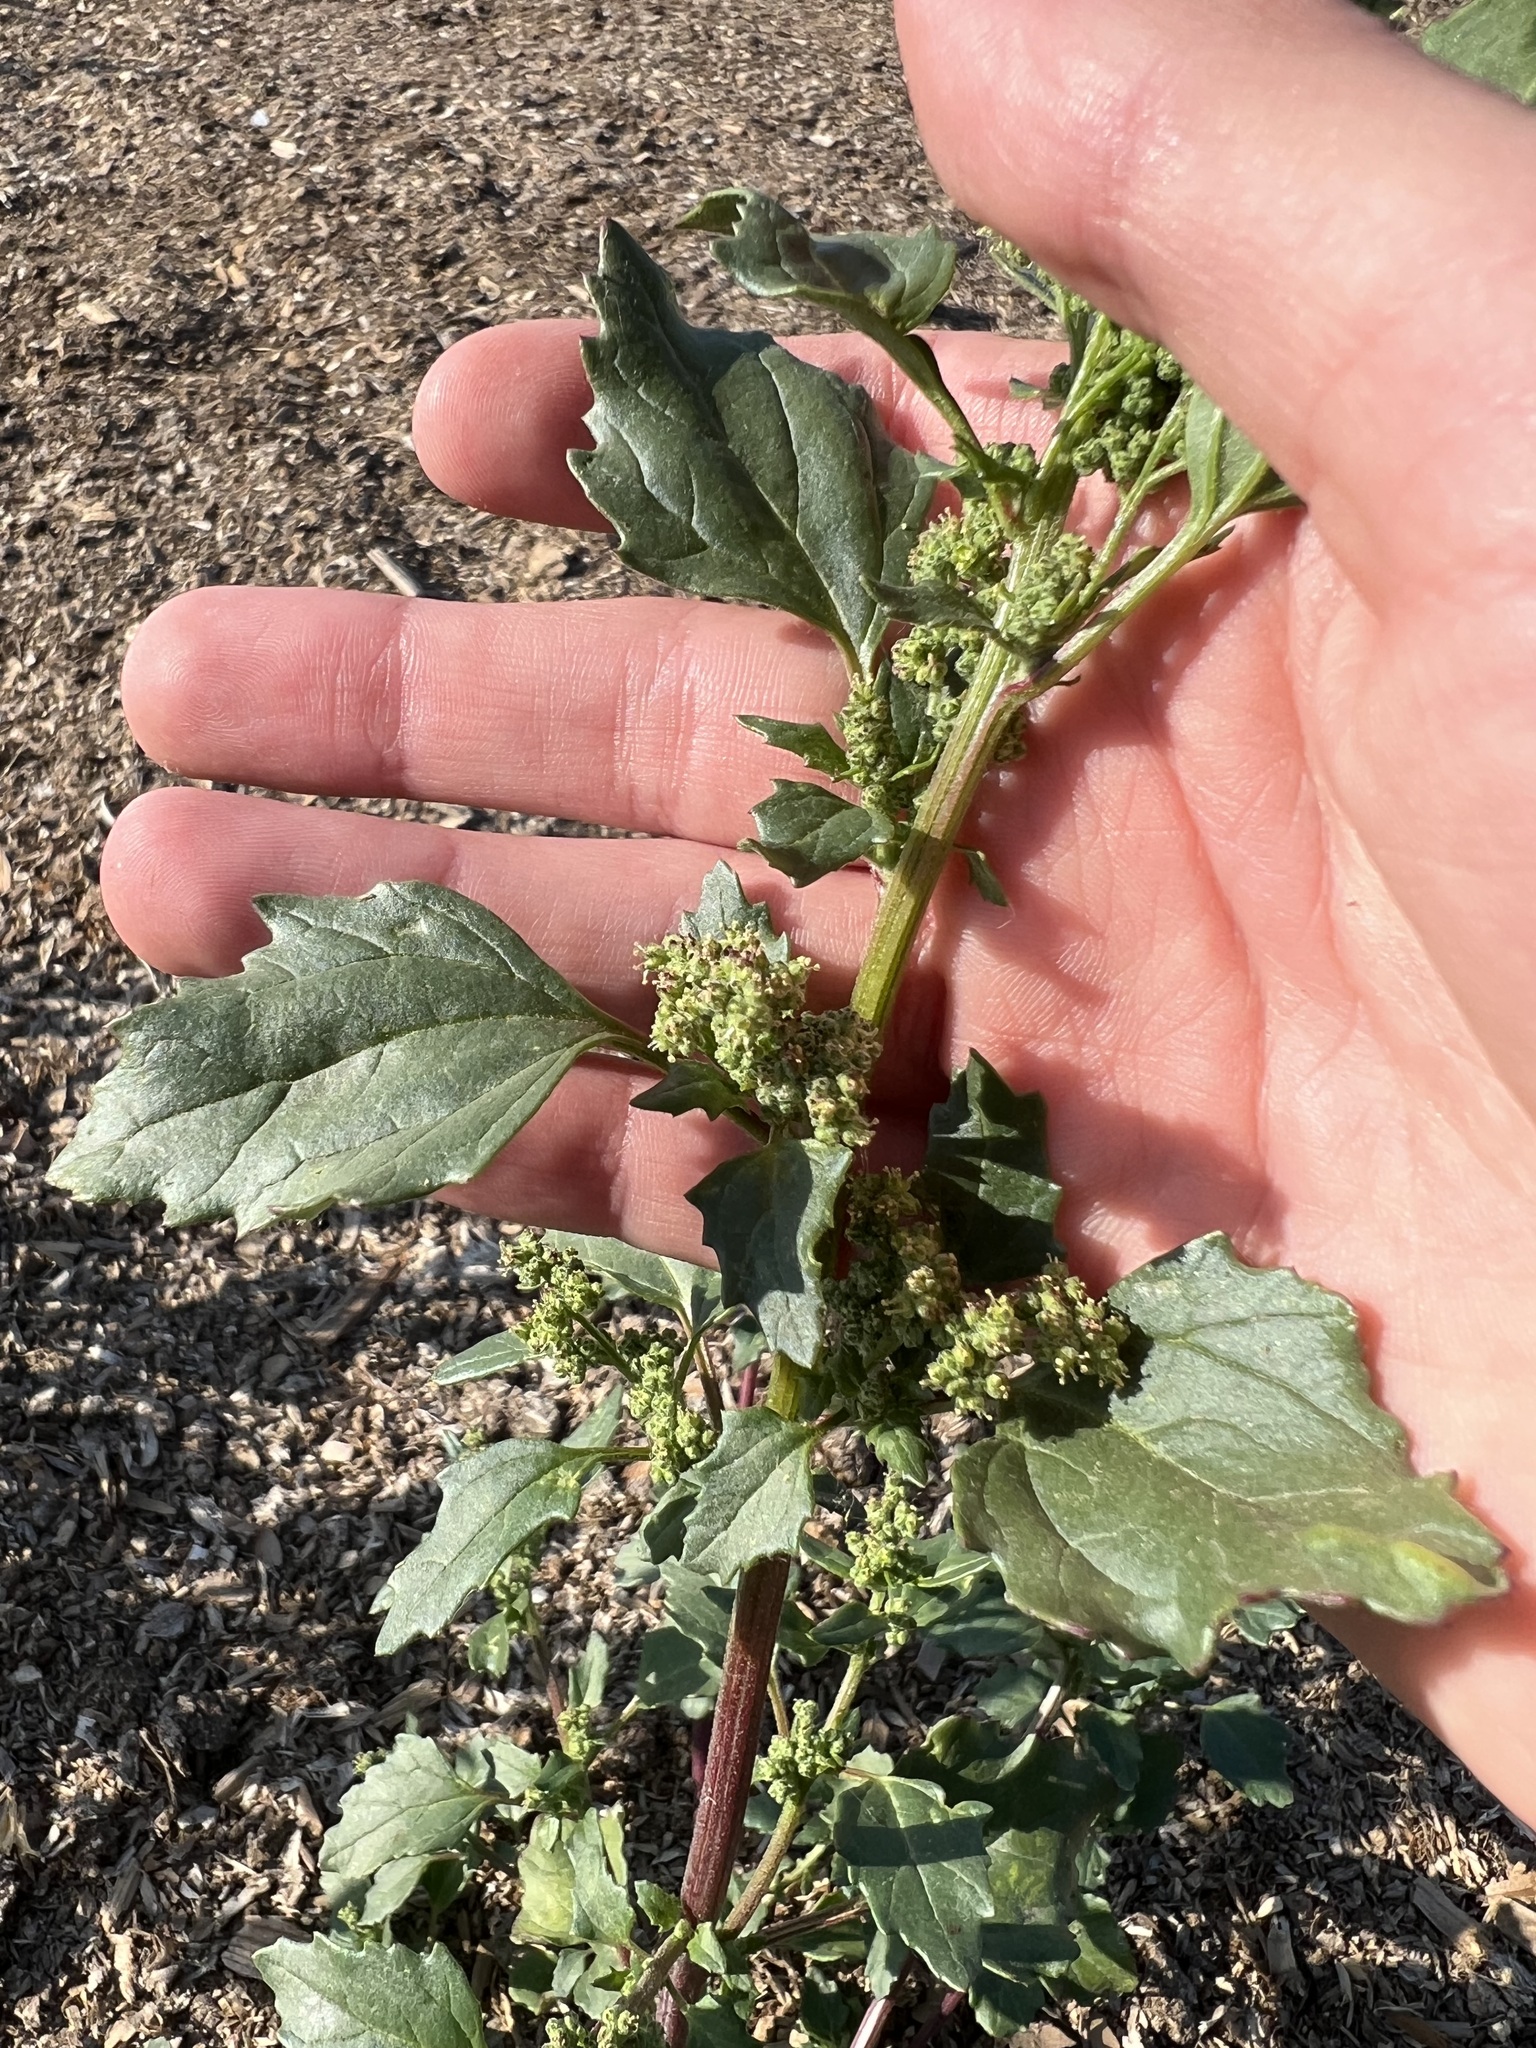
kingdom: Plantae
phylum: Tracheophyta
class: Magnoliopsida
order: Caryophyllales
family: Amaranthaceae
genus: Chenopodiastrum
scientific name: Chenopodiastrum murale
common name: Sowbane
